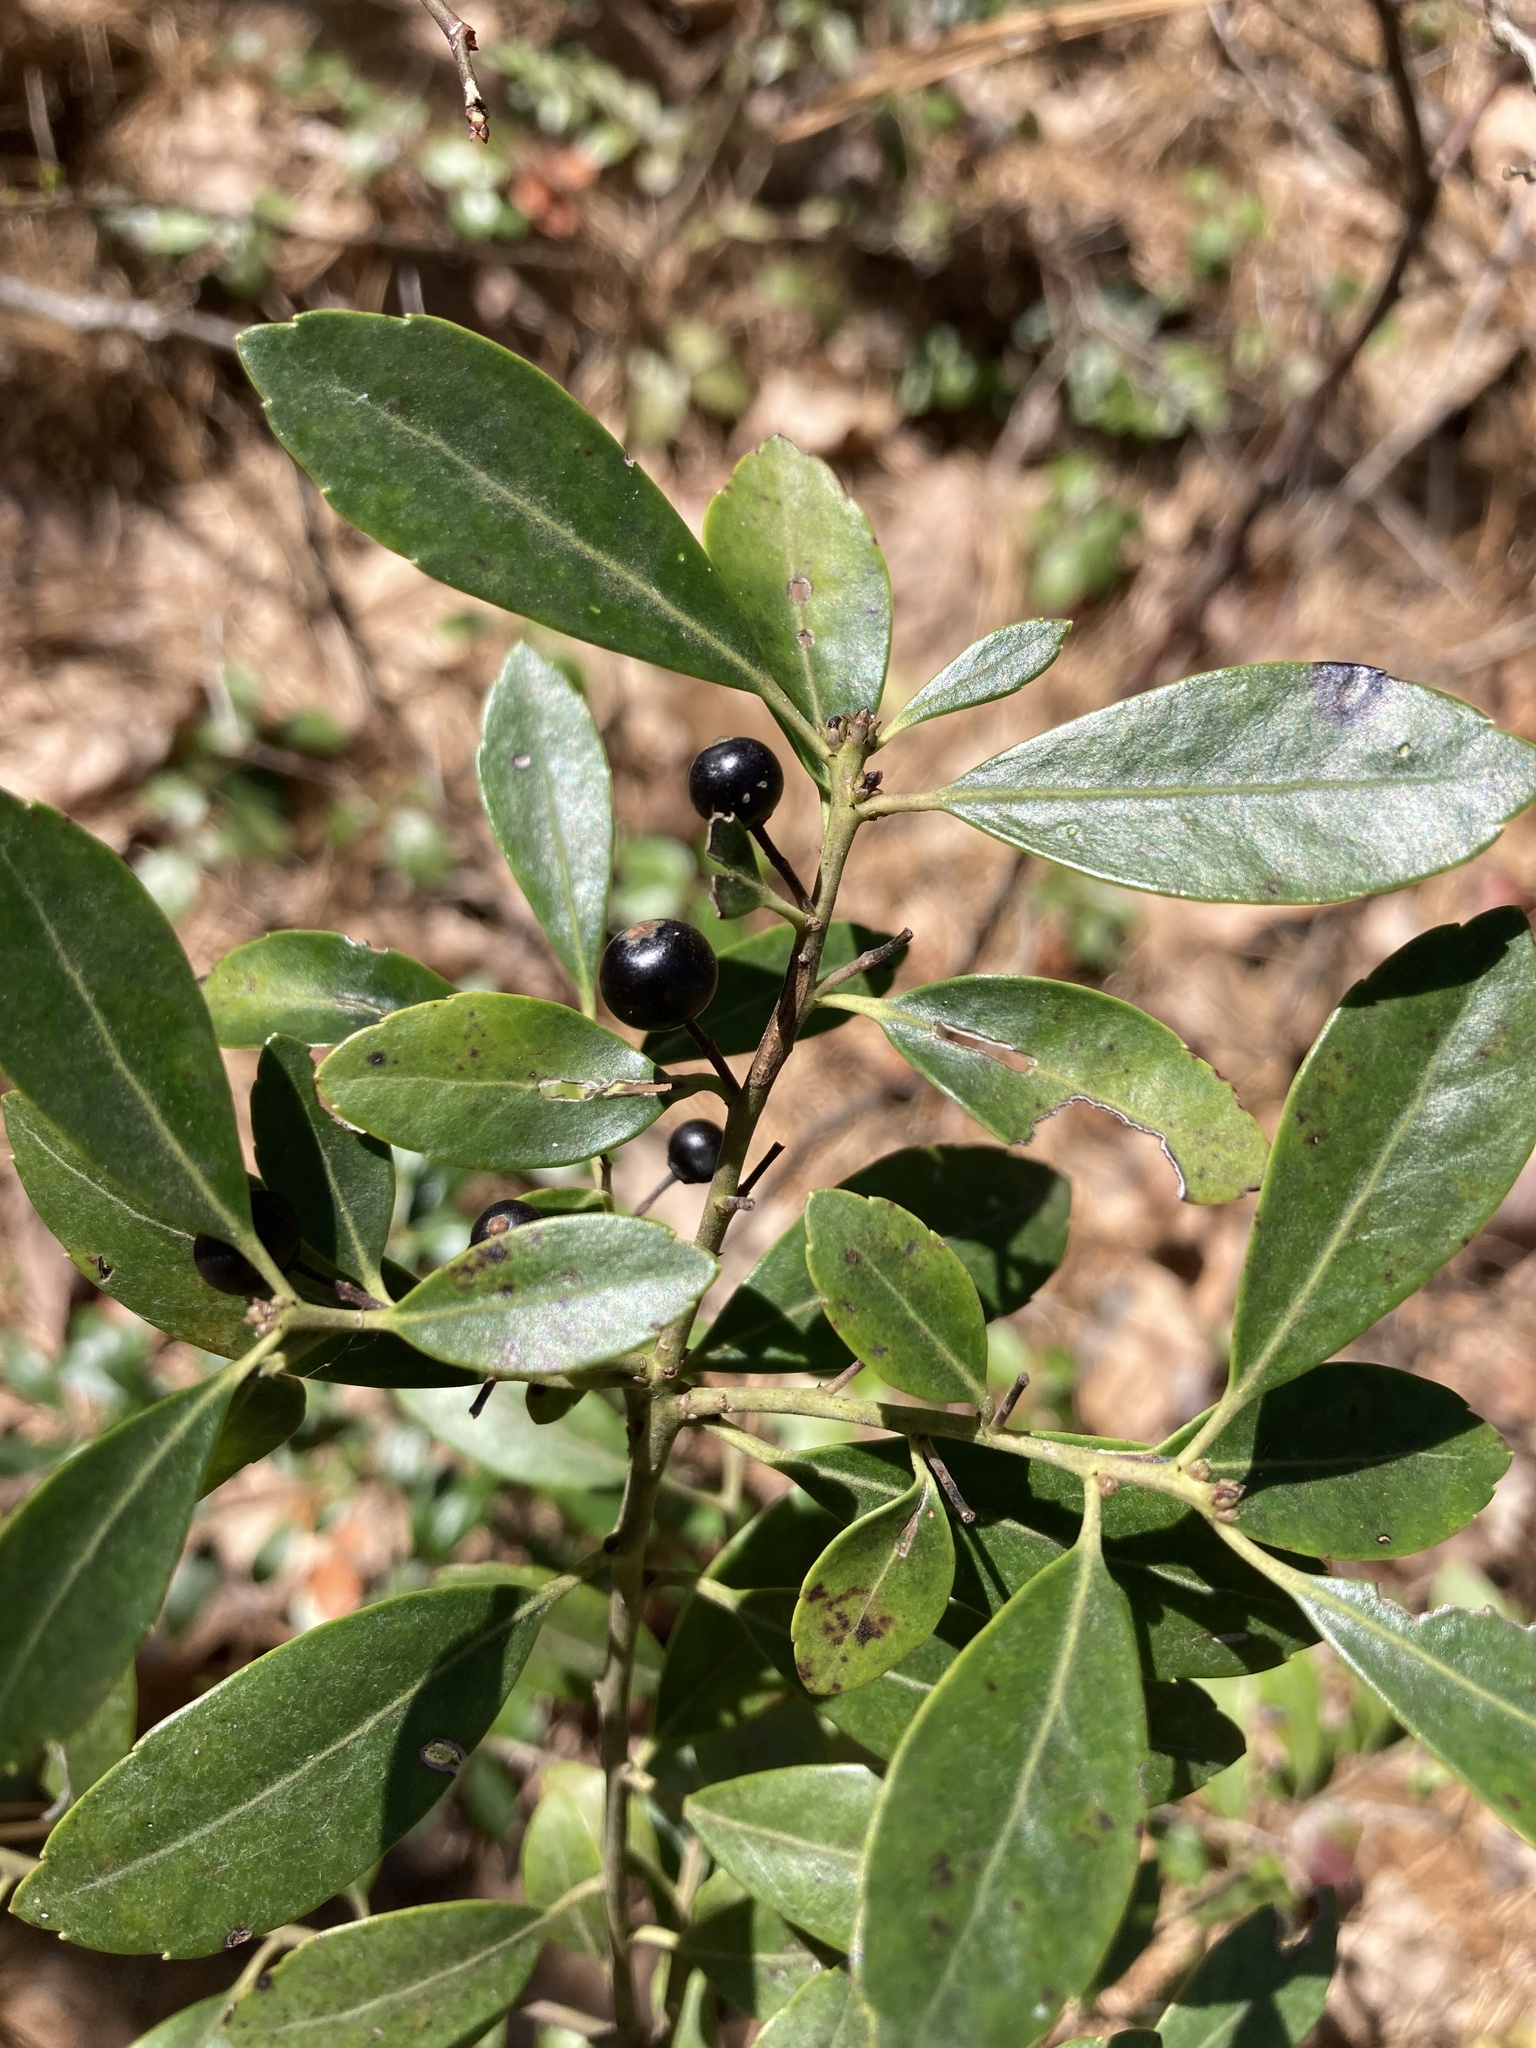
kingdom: Plantae
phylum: Tracheophyta
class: Magnoliopsida
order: Aquifoliales
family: Aquifoliaceae
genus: Ilex
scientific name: Ilex glabra
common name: Bitter gallberry
